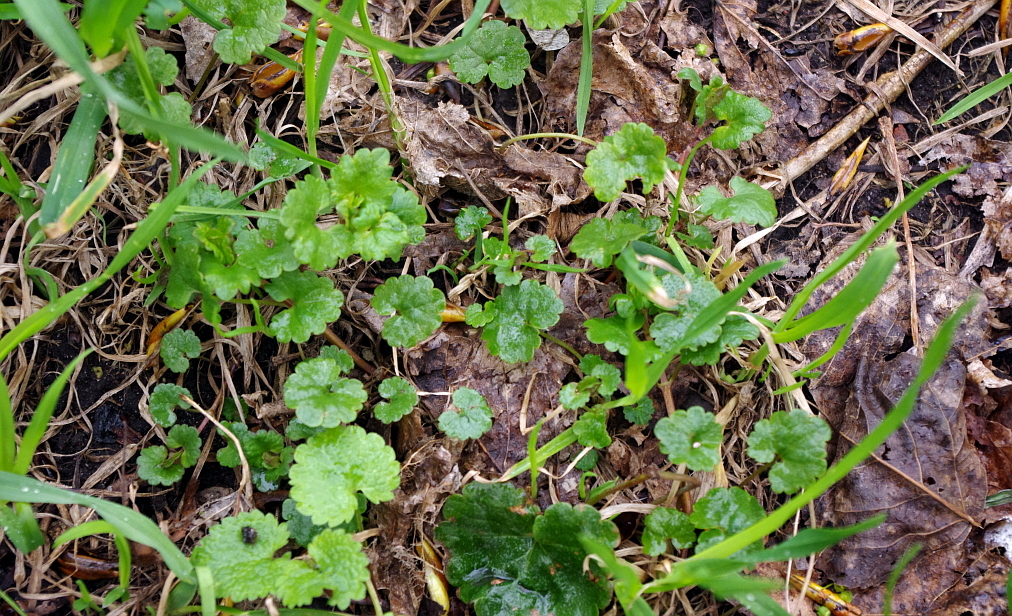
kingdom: Plantae
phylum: Tracheophyta
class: Magnoliopsida
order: Lamiales
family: Lamiaceae
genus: Glechoma
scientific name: Glechoma hederacea
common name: Ground ivy
